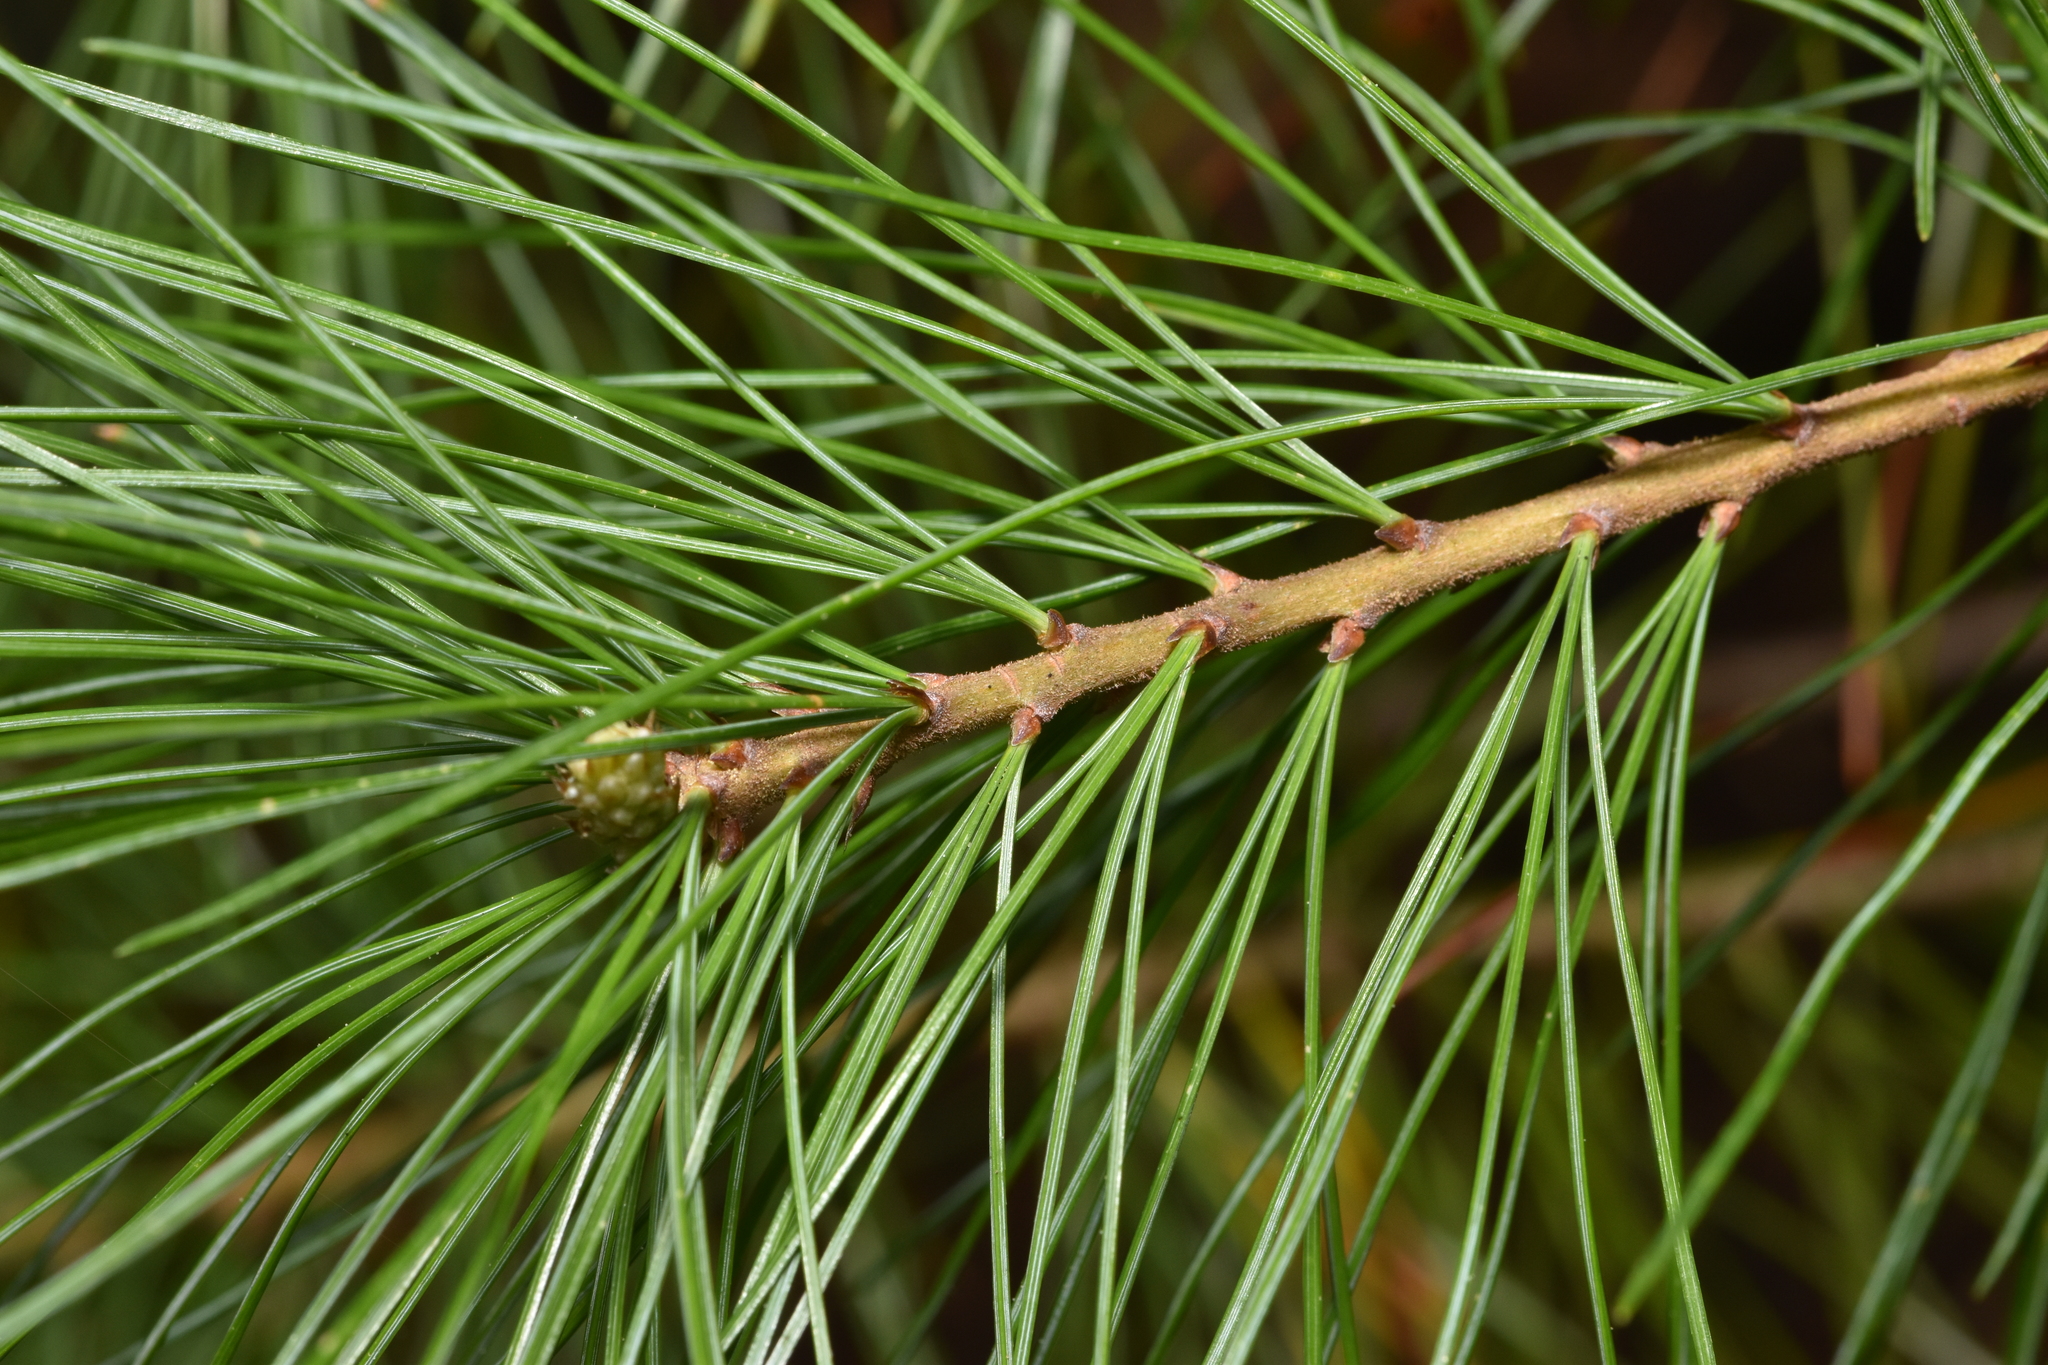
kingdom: Plantae
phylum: Tracheophyta
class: Pinopsida
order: Pinales
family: Pinaceae
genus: Pinus
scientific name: Pinus monticola
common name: Western white pine
